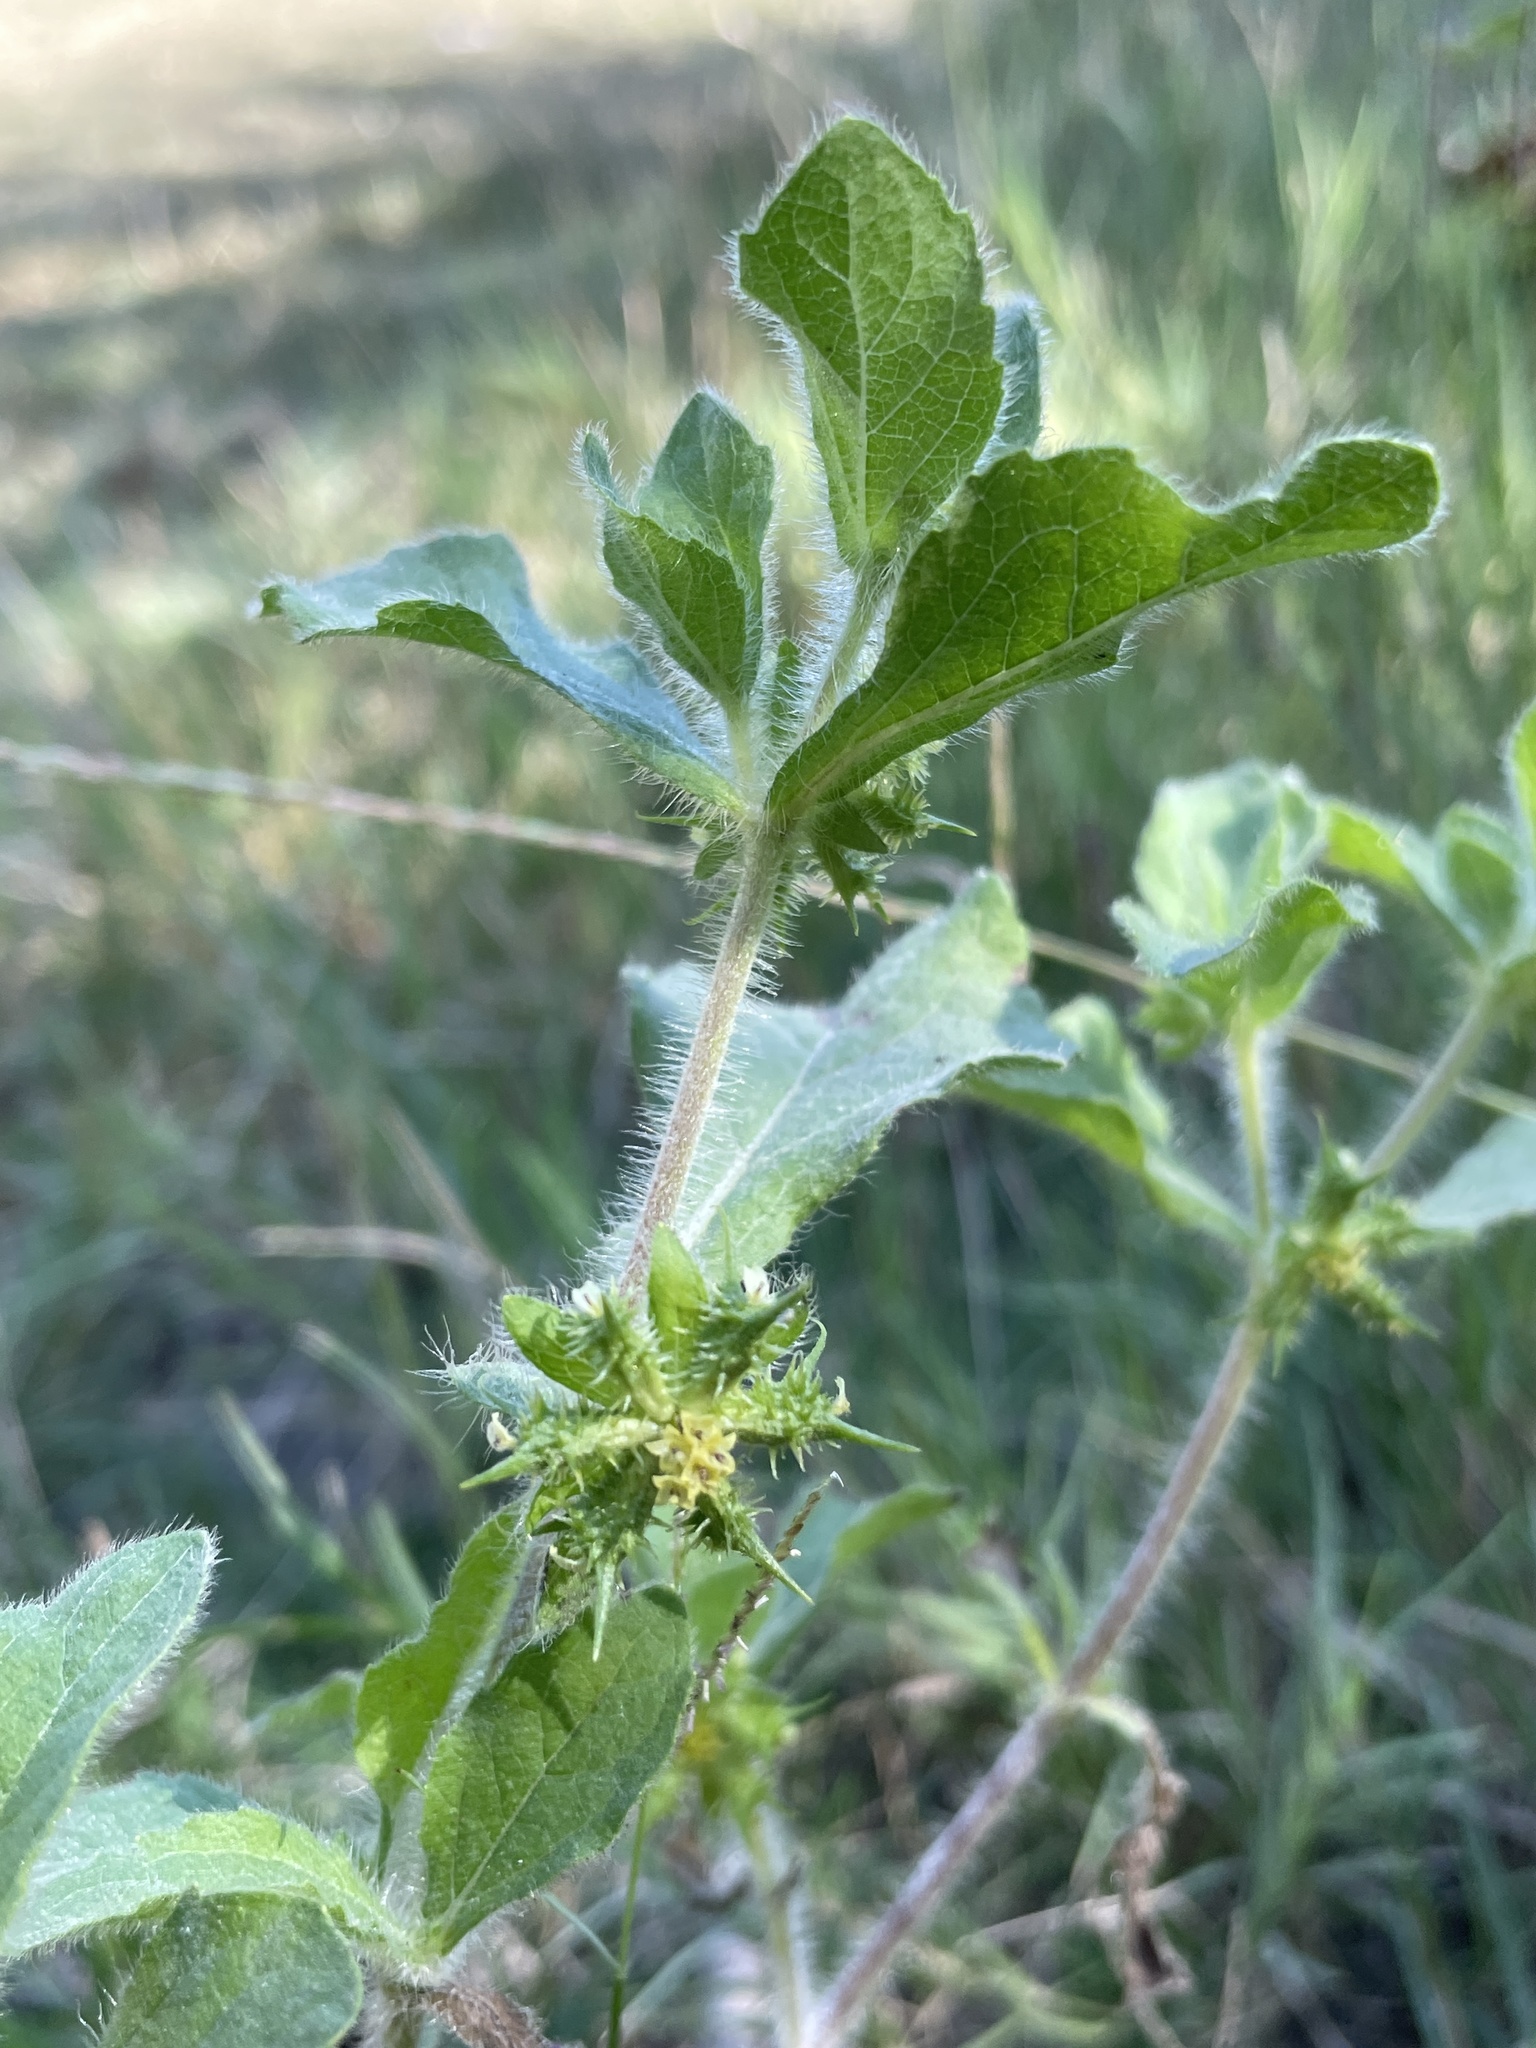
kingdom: Plantae
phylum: Tracheophyta
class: Magnoliopsida
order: Asterales
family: Asteraceae
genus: Acanthospermum
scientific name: Acanthospermum hispidum
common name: Hispid starbur
